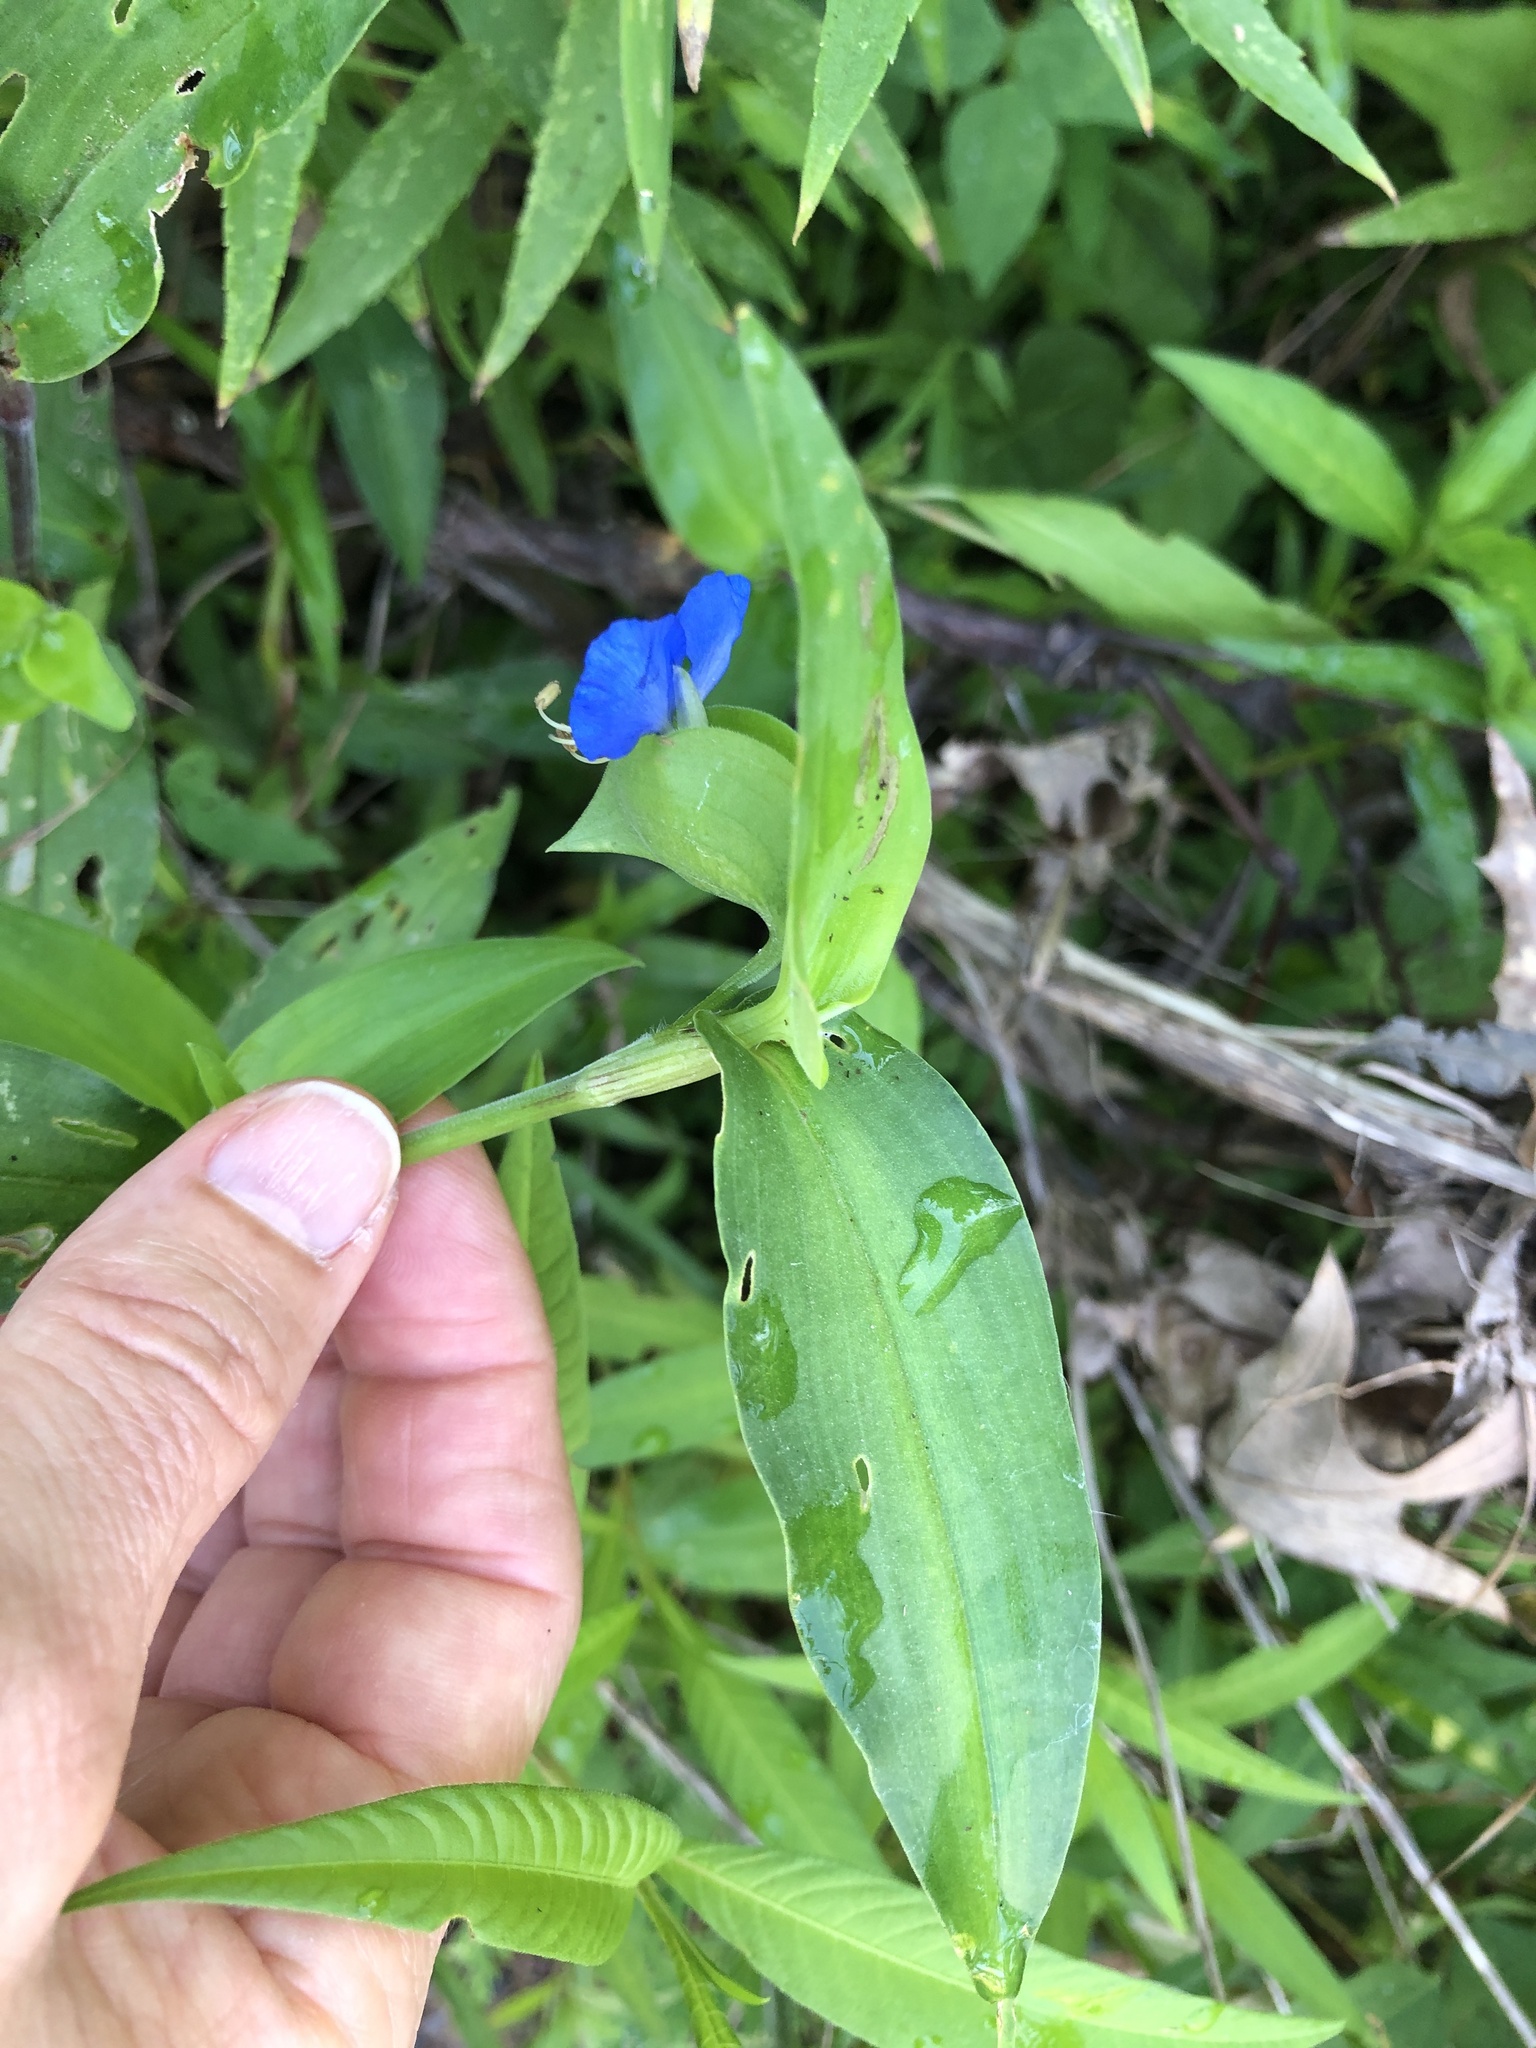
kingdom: Plantae
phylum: Tracheophyta
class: Liliopsida
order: Commelinales
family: Commelinaceae
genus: Commelina
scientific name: Commelina communis
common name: Asiatic dayflower
